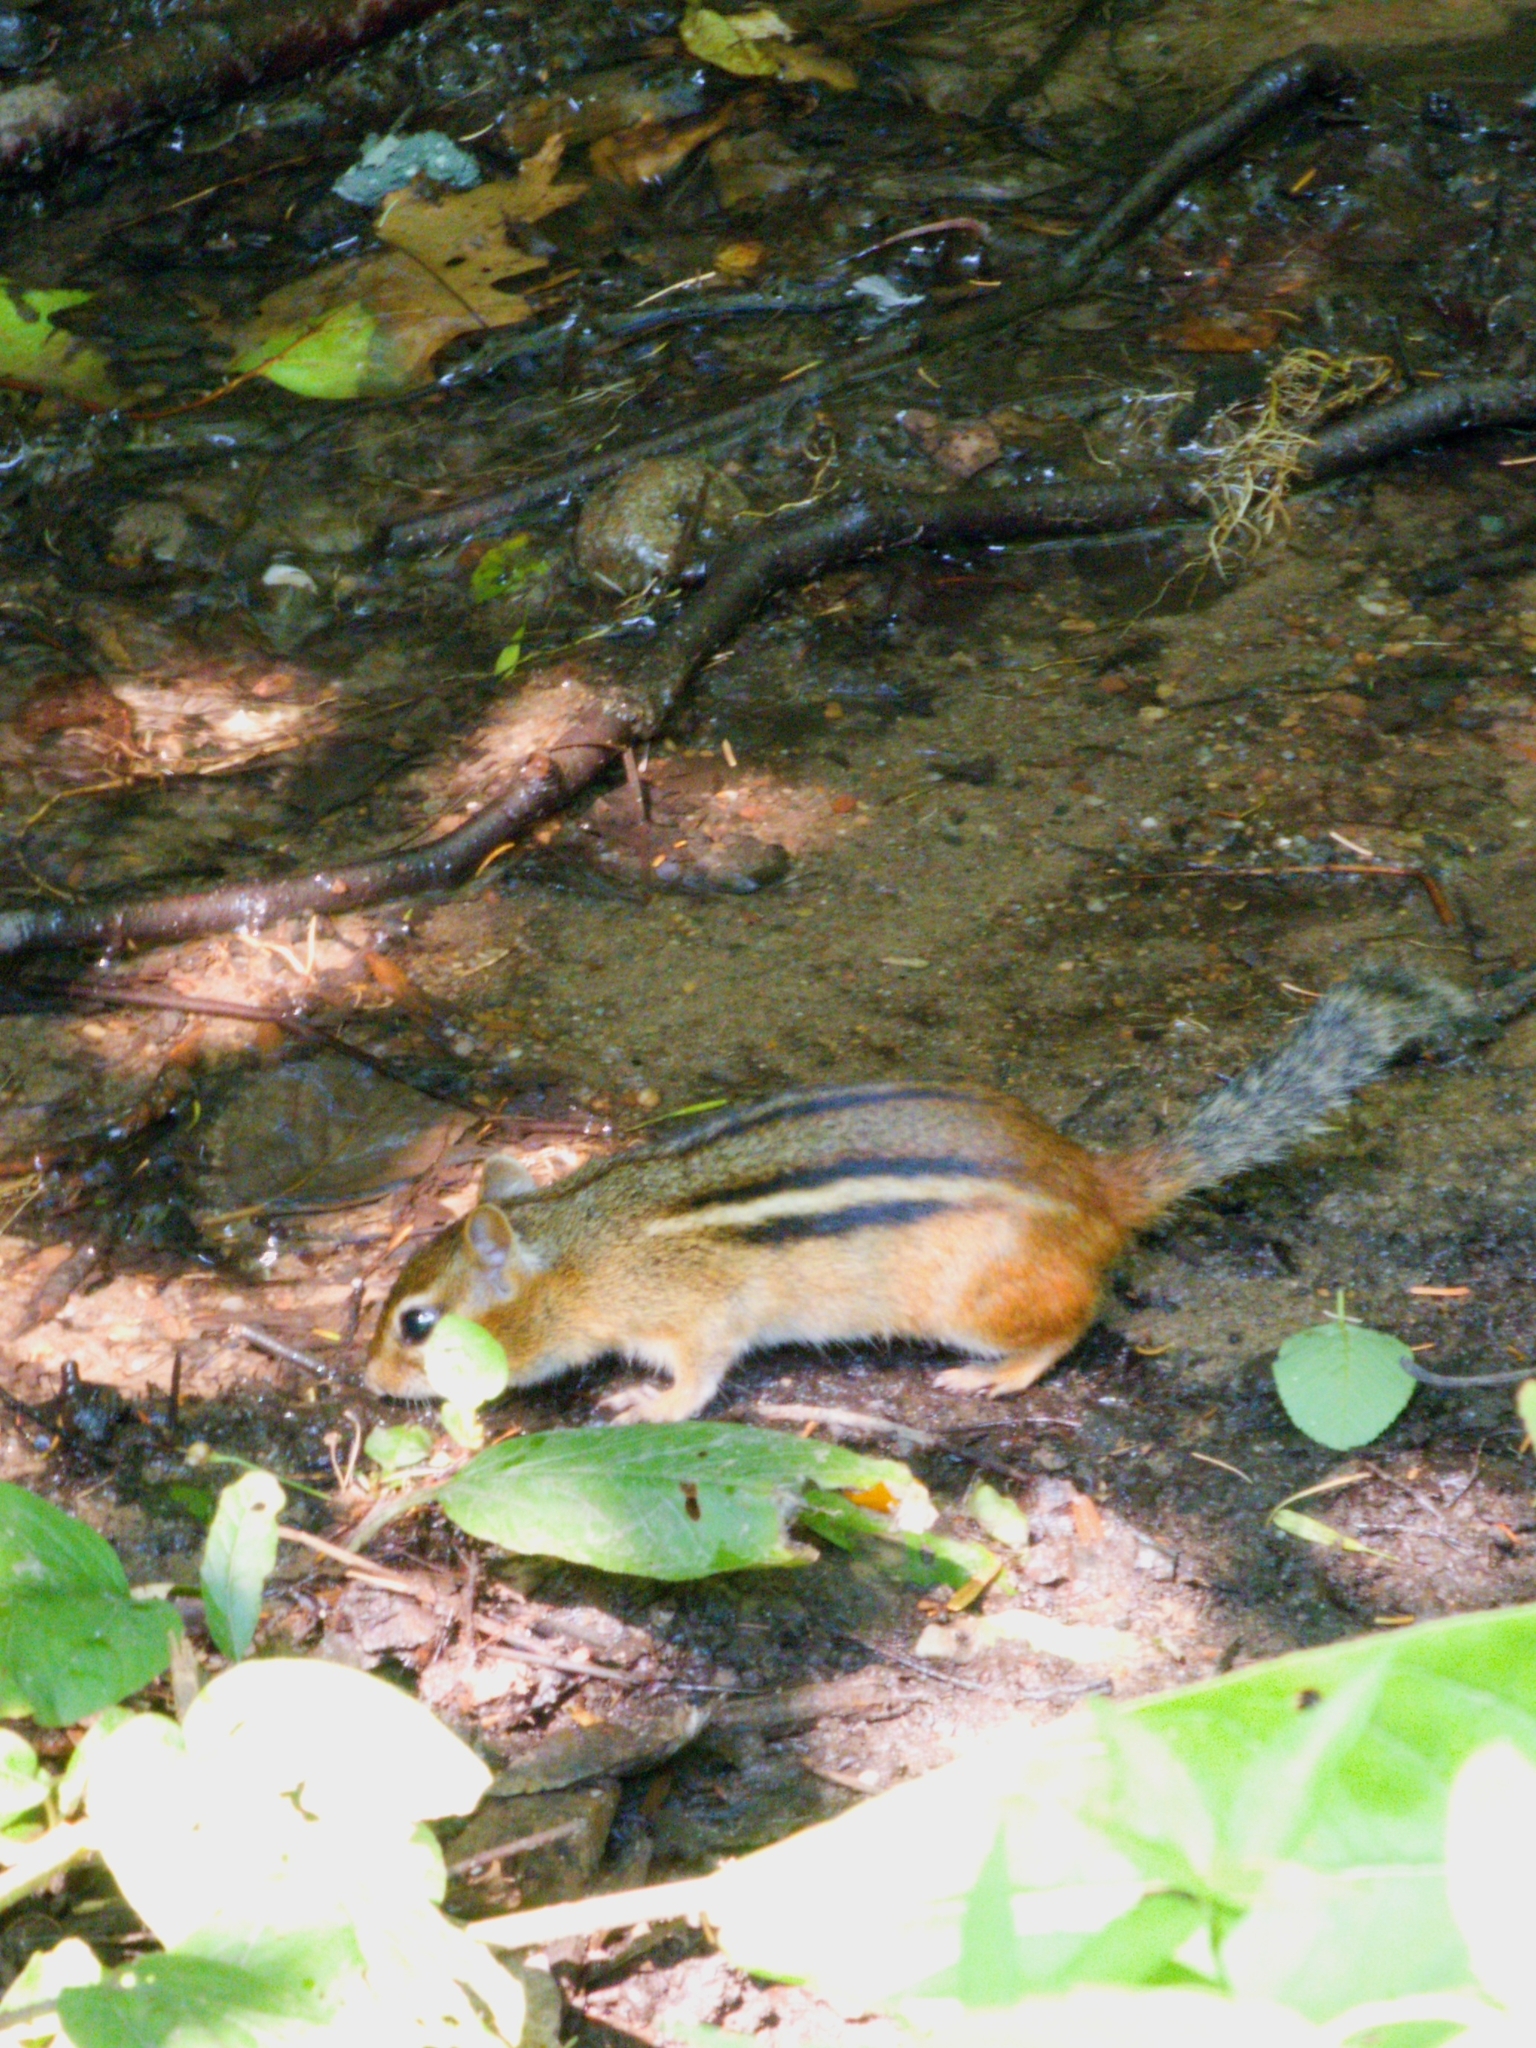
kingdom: Animalia
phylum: Chordata
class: Mammalia
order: Rodentia
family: Sciuridae
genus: Tamias
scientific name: Tamias striatus
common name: Eastern chipmunk
